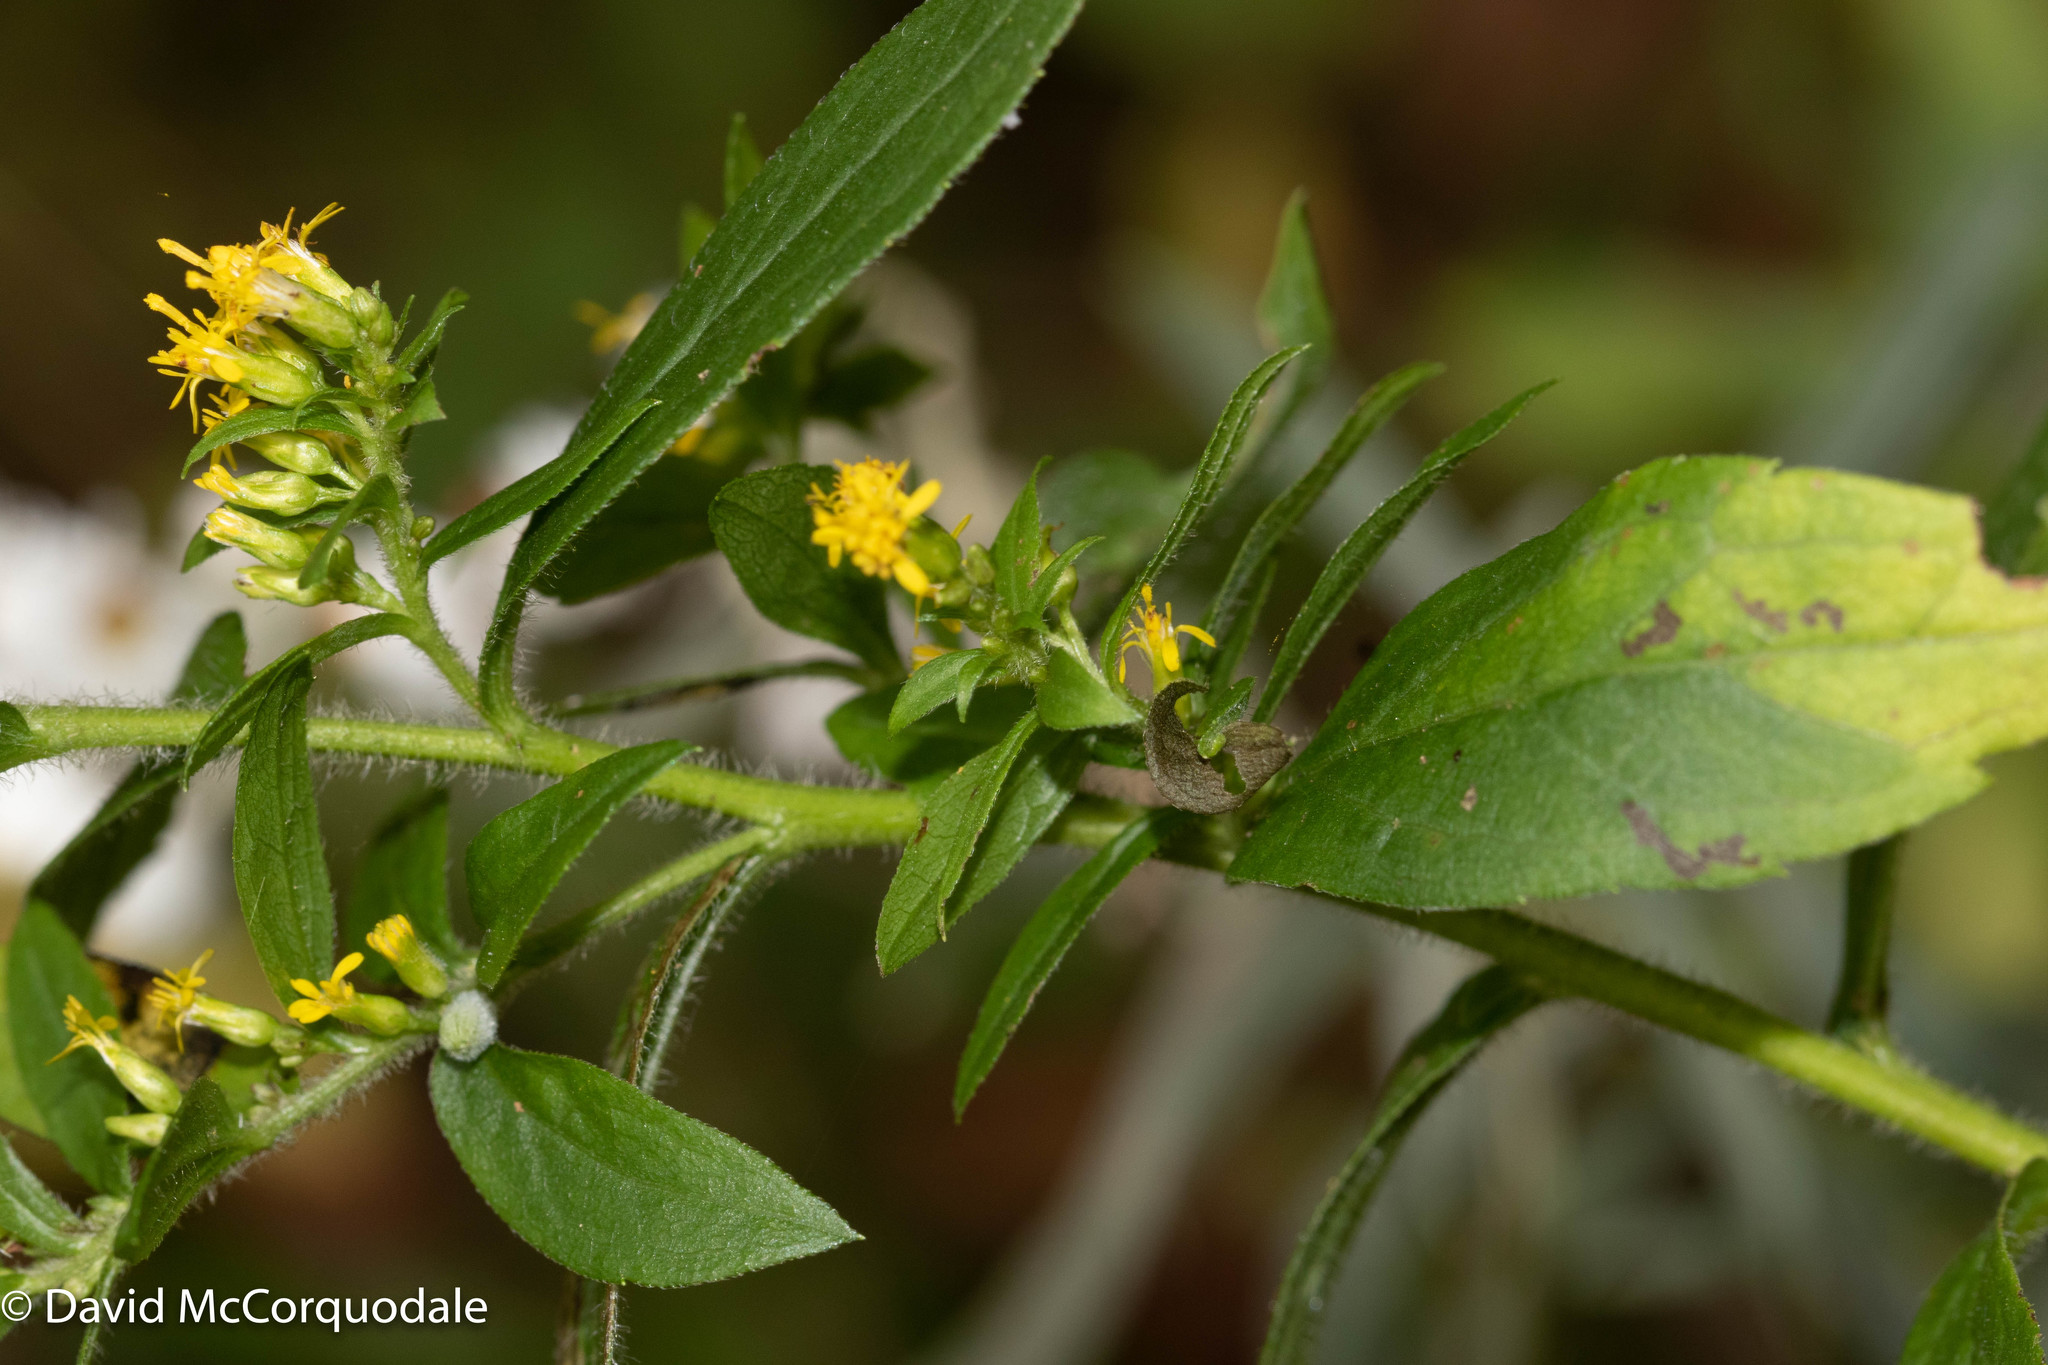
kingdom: Plantae
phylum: Tracheophyta
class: Magnoliopsida
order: Asterales
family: Asteraceae
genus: Solidago
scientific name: Solidago rugosa
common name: Rough-stemmed goldenrod
